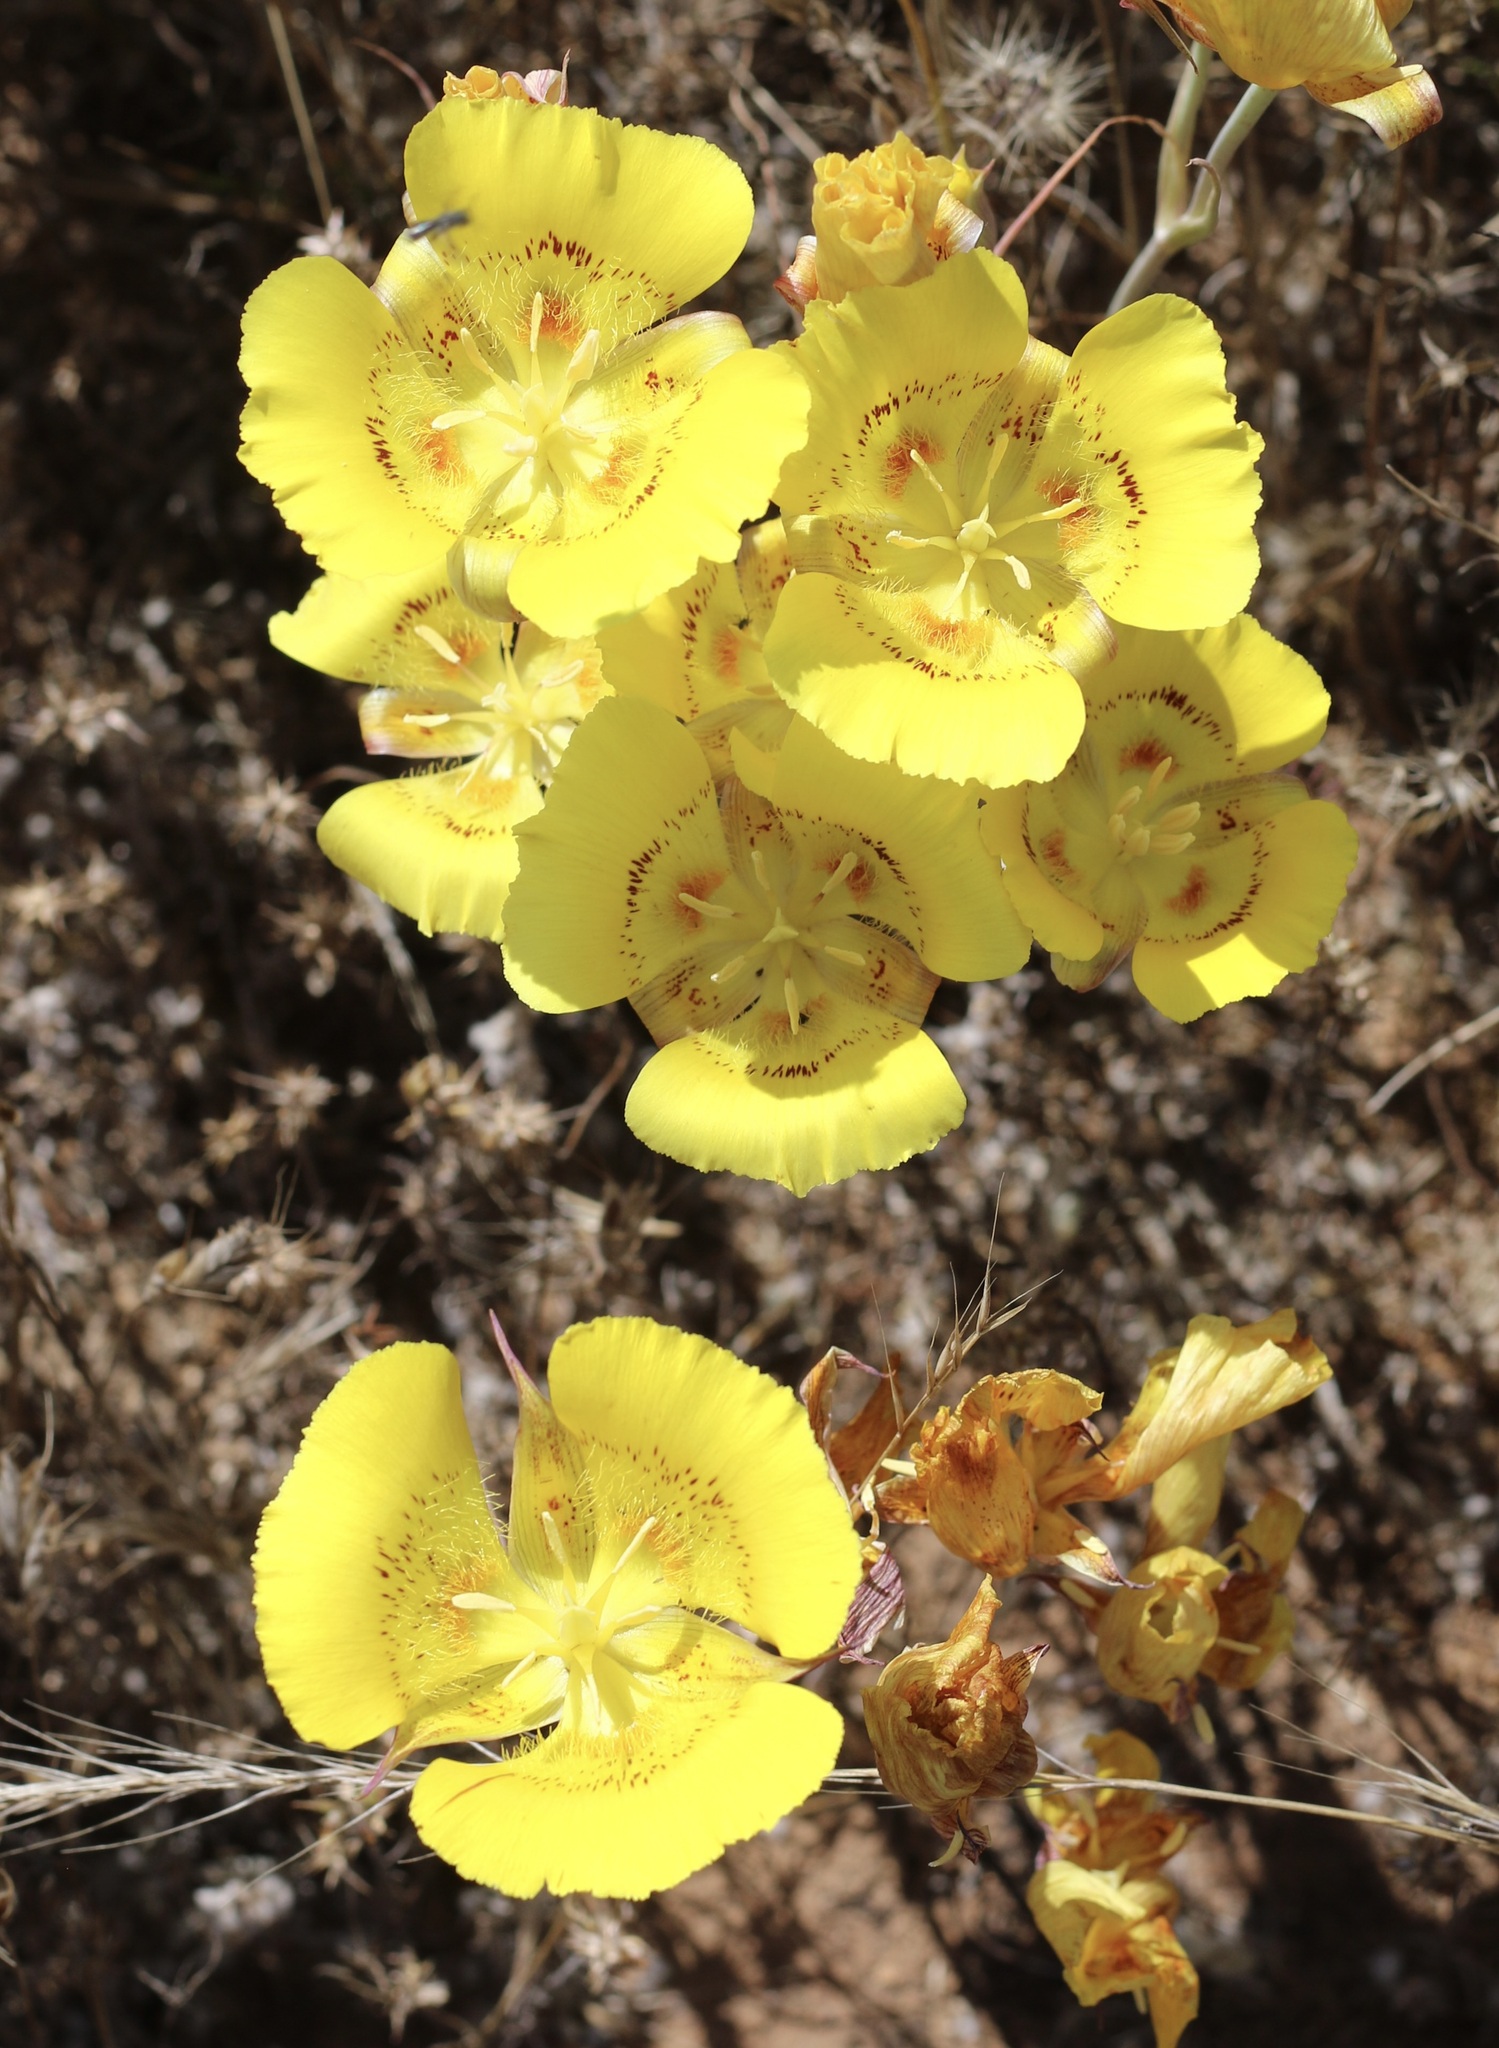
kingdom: Plantae
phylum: Tracheophyta
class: Liliopsida
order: Liliales
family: Liliaceae
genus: Calochortus
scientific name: Calochortus luteus
